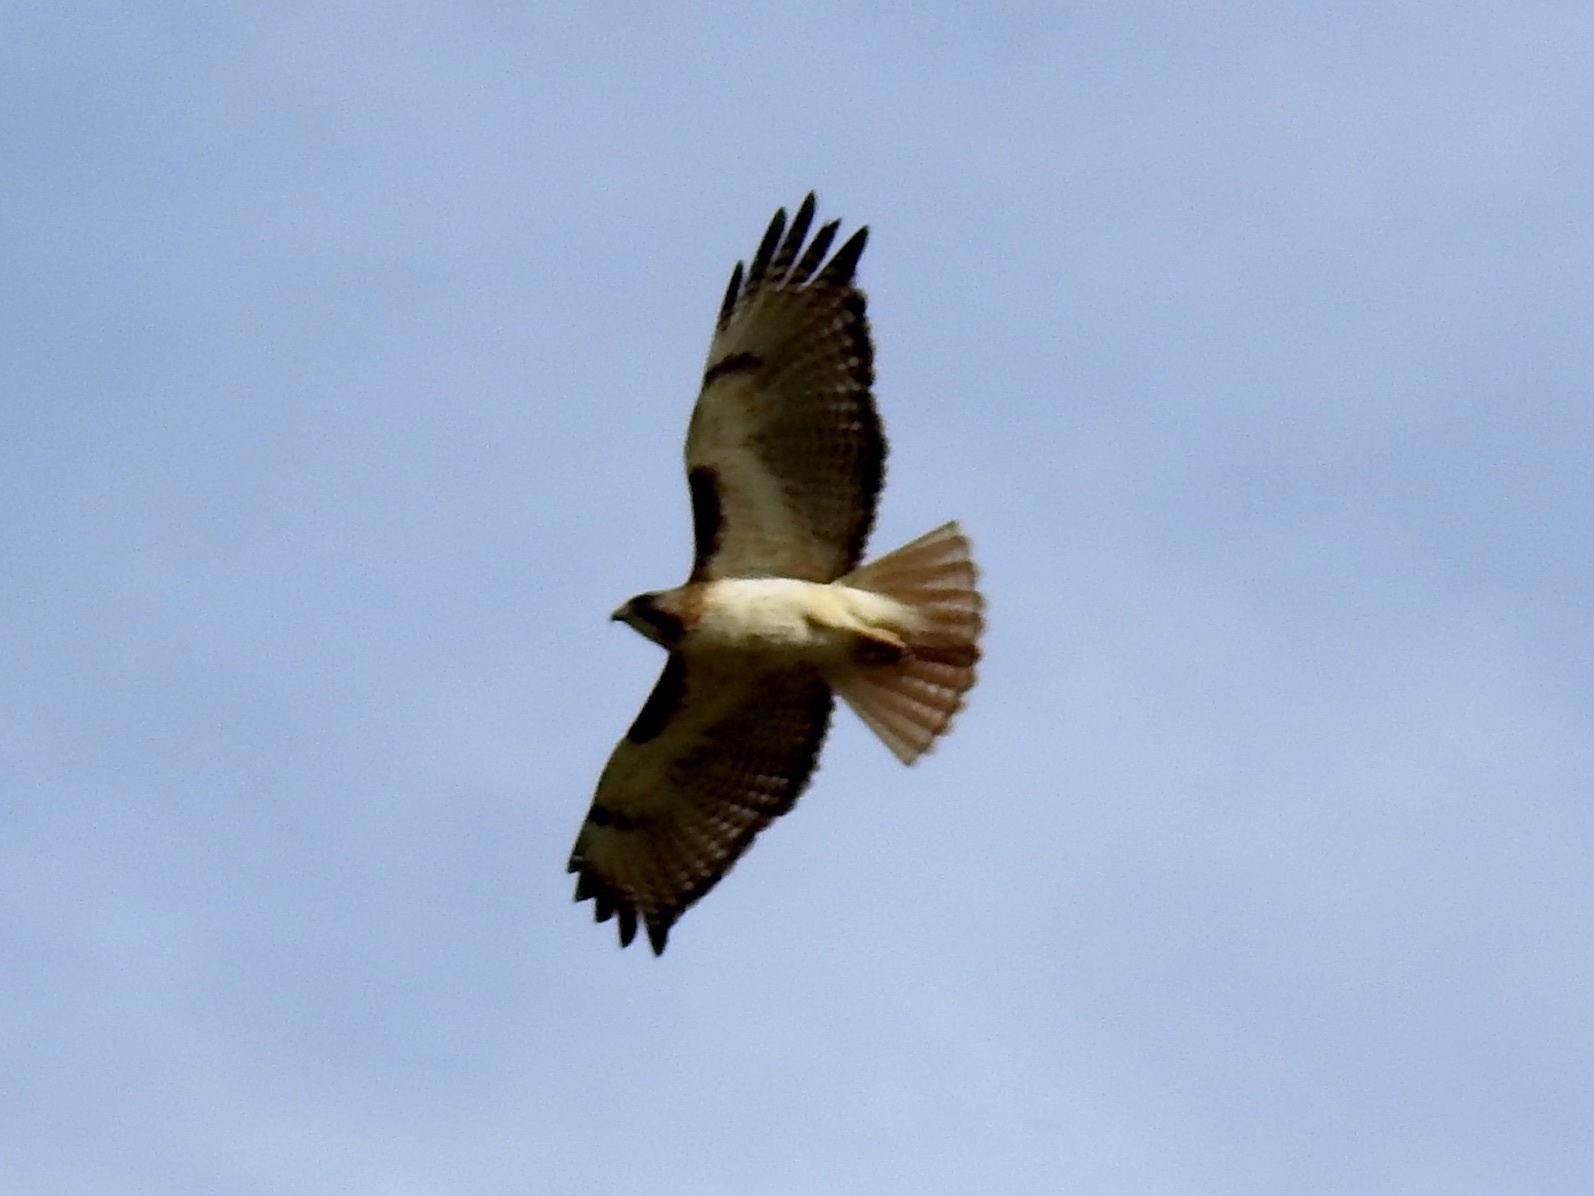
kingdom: Animalia
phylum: Chordata
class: Aves
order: Accipitriformes
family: Accipitridae
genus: Buteo
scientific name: Buteo jamaicensis
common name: Red-tailed hawk
